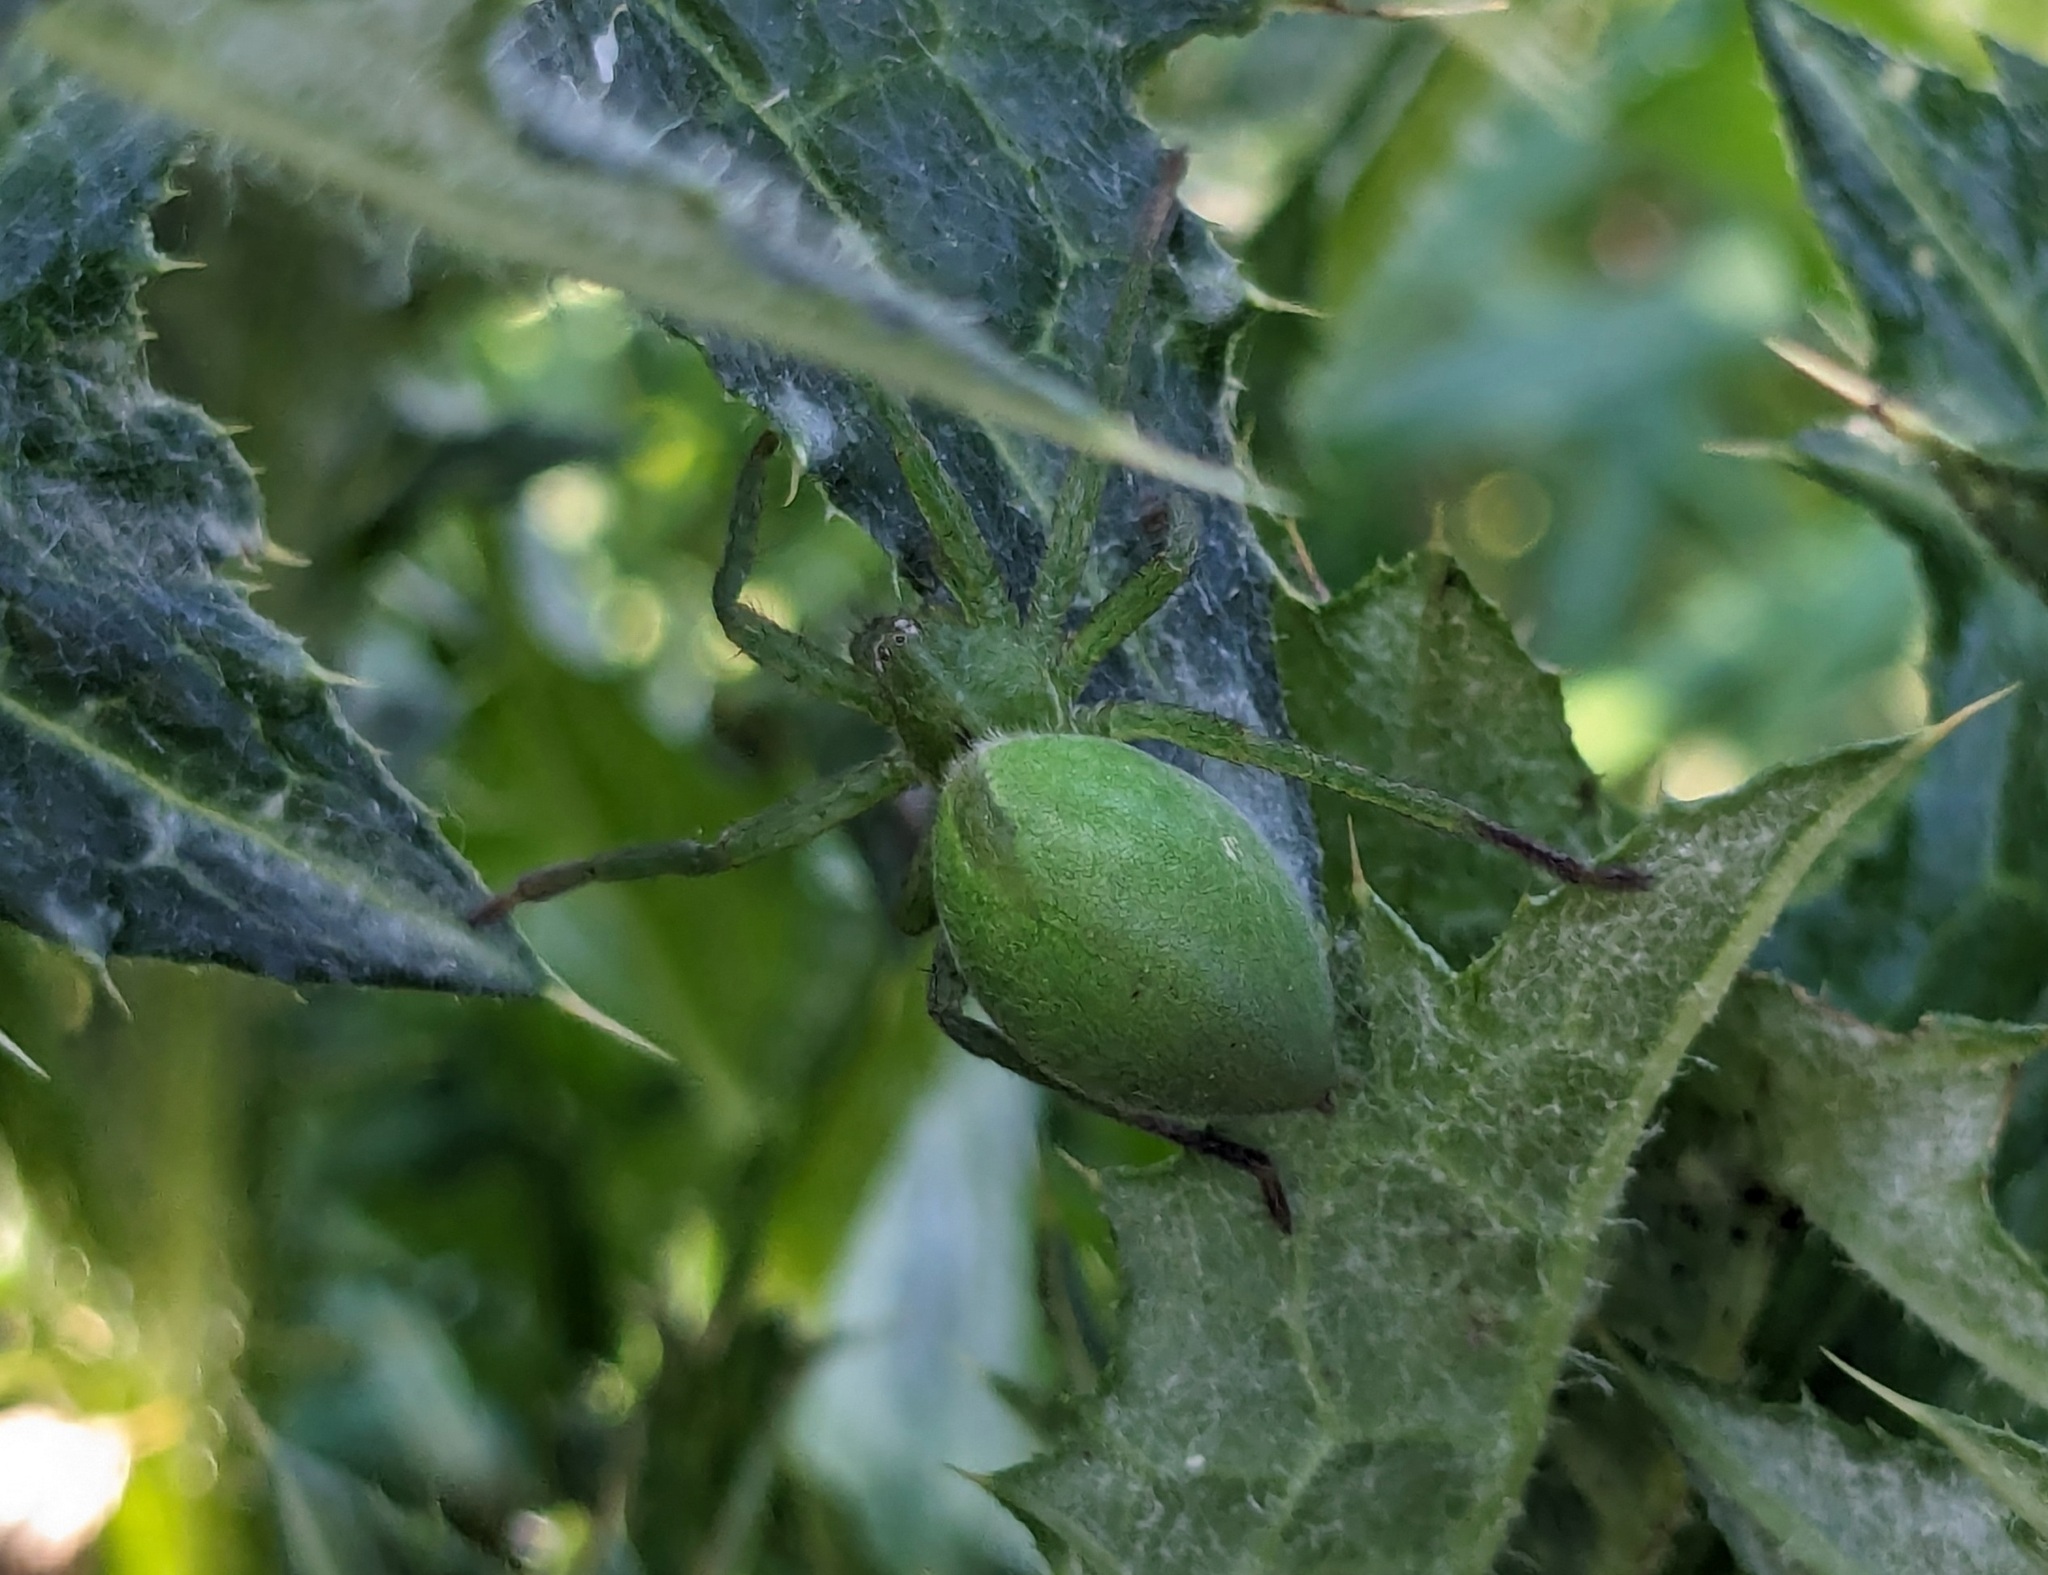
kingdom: Animalia
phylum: Arthropoda
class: Arachnida
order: Araneae
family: Sparassidae
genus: Micrommata
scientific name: Micrommata ligurina
